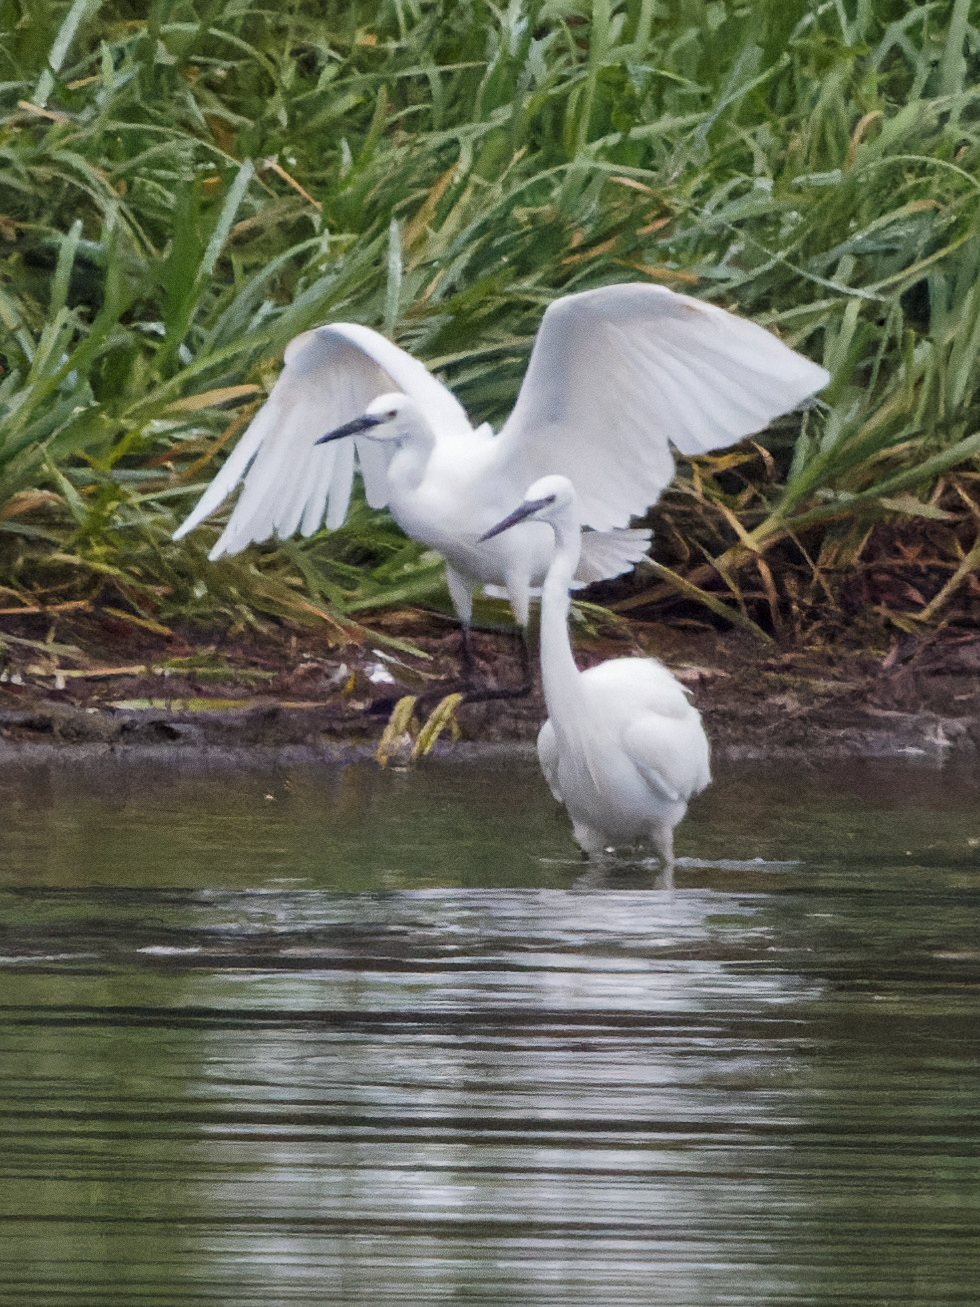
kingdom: Animalia
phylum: Chordata
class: Aves
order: Pelecaniformes
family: Ardeidae
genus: Egretta
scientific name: Egretta garzetta
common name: Little egret
